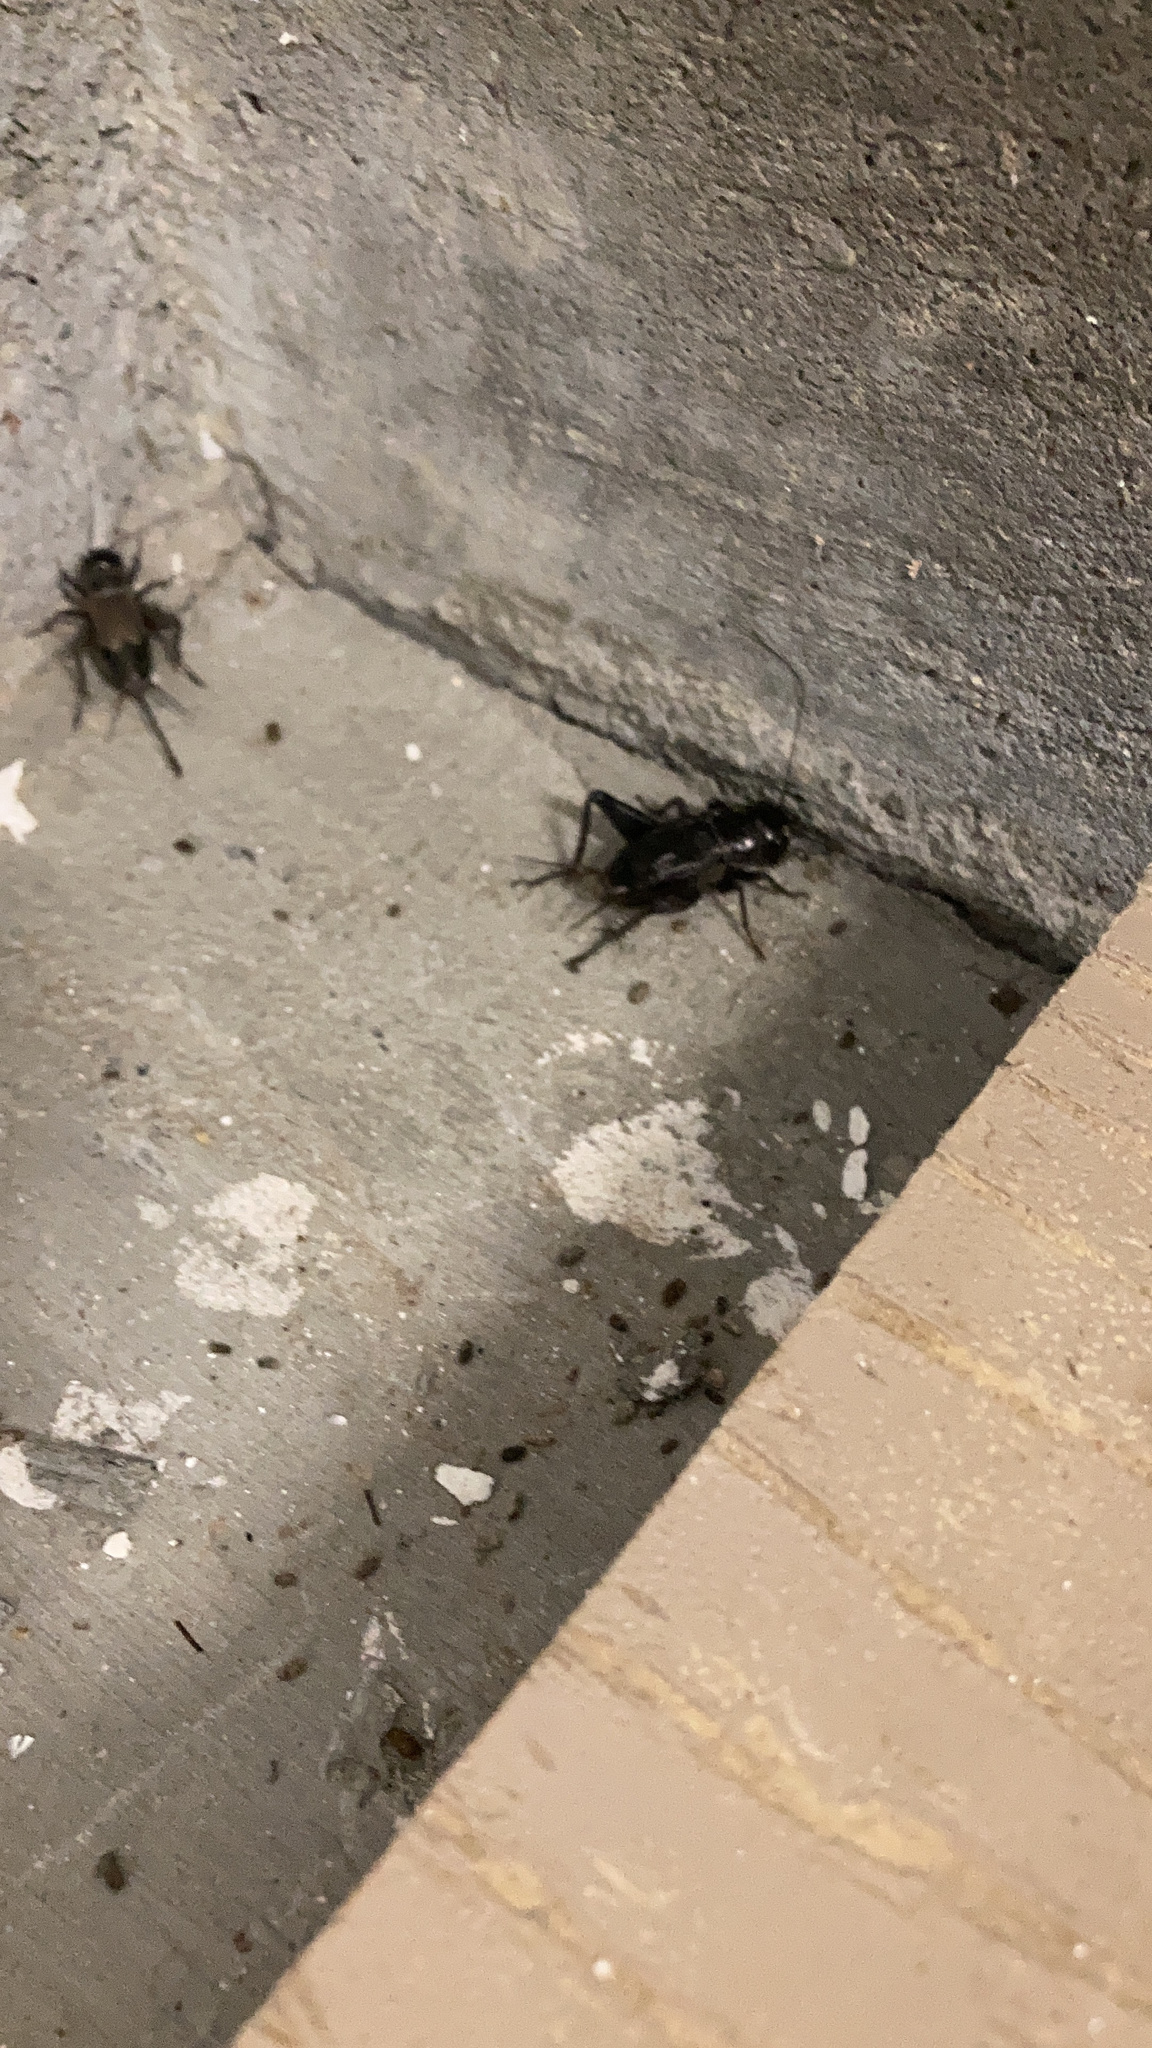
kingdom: Animalia
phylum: Arthropoda
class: Insecta
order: Orthoptera
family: Gryllidae
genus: Gryllus
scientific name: Gryllus pennsylvanicus
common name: Fall field cricket
